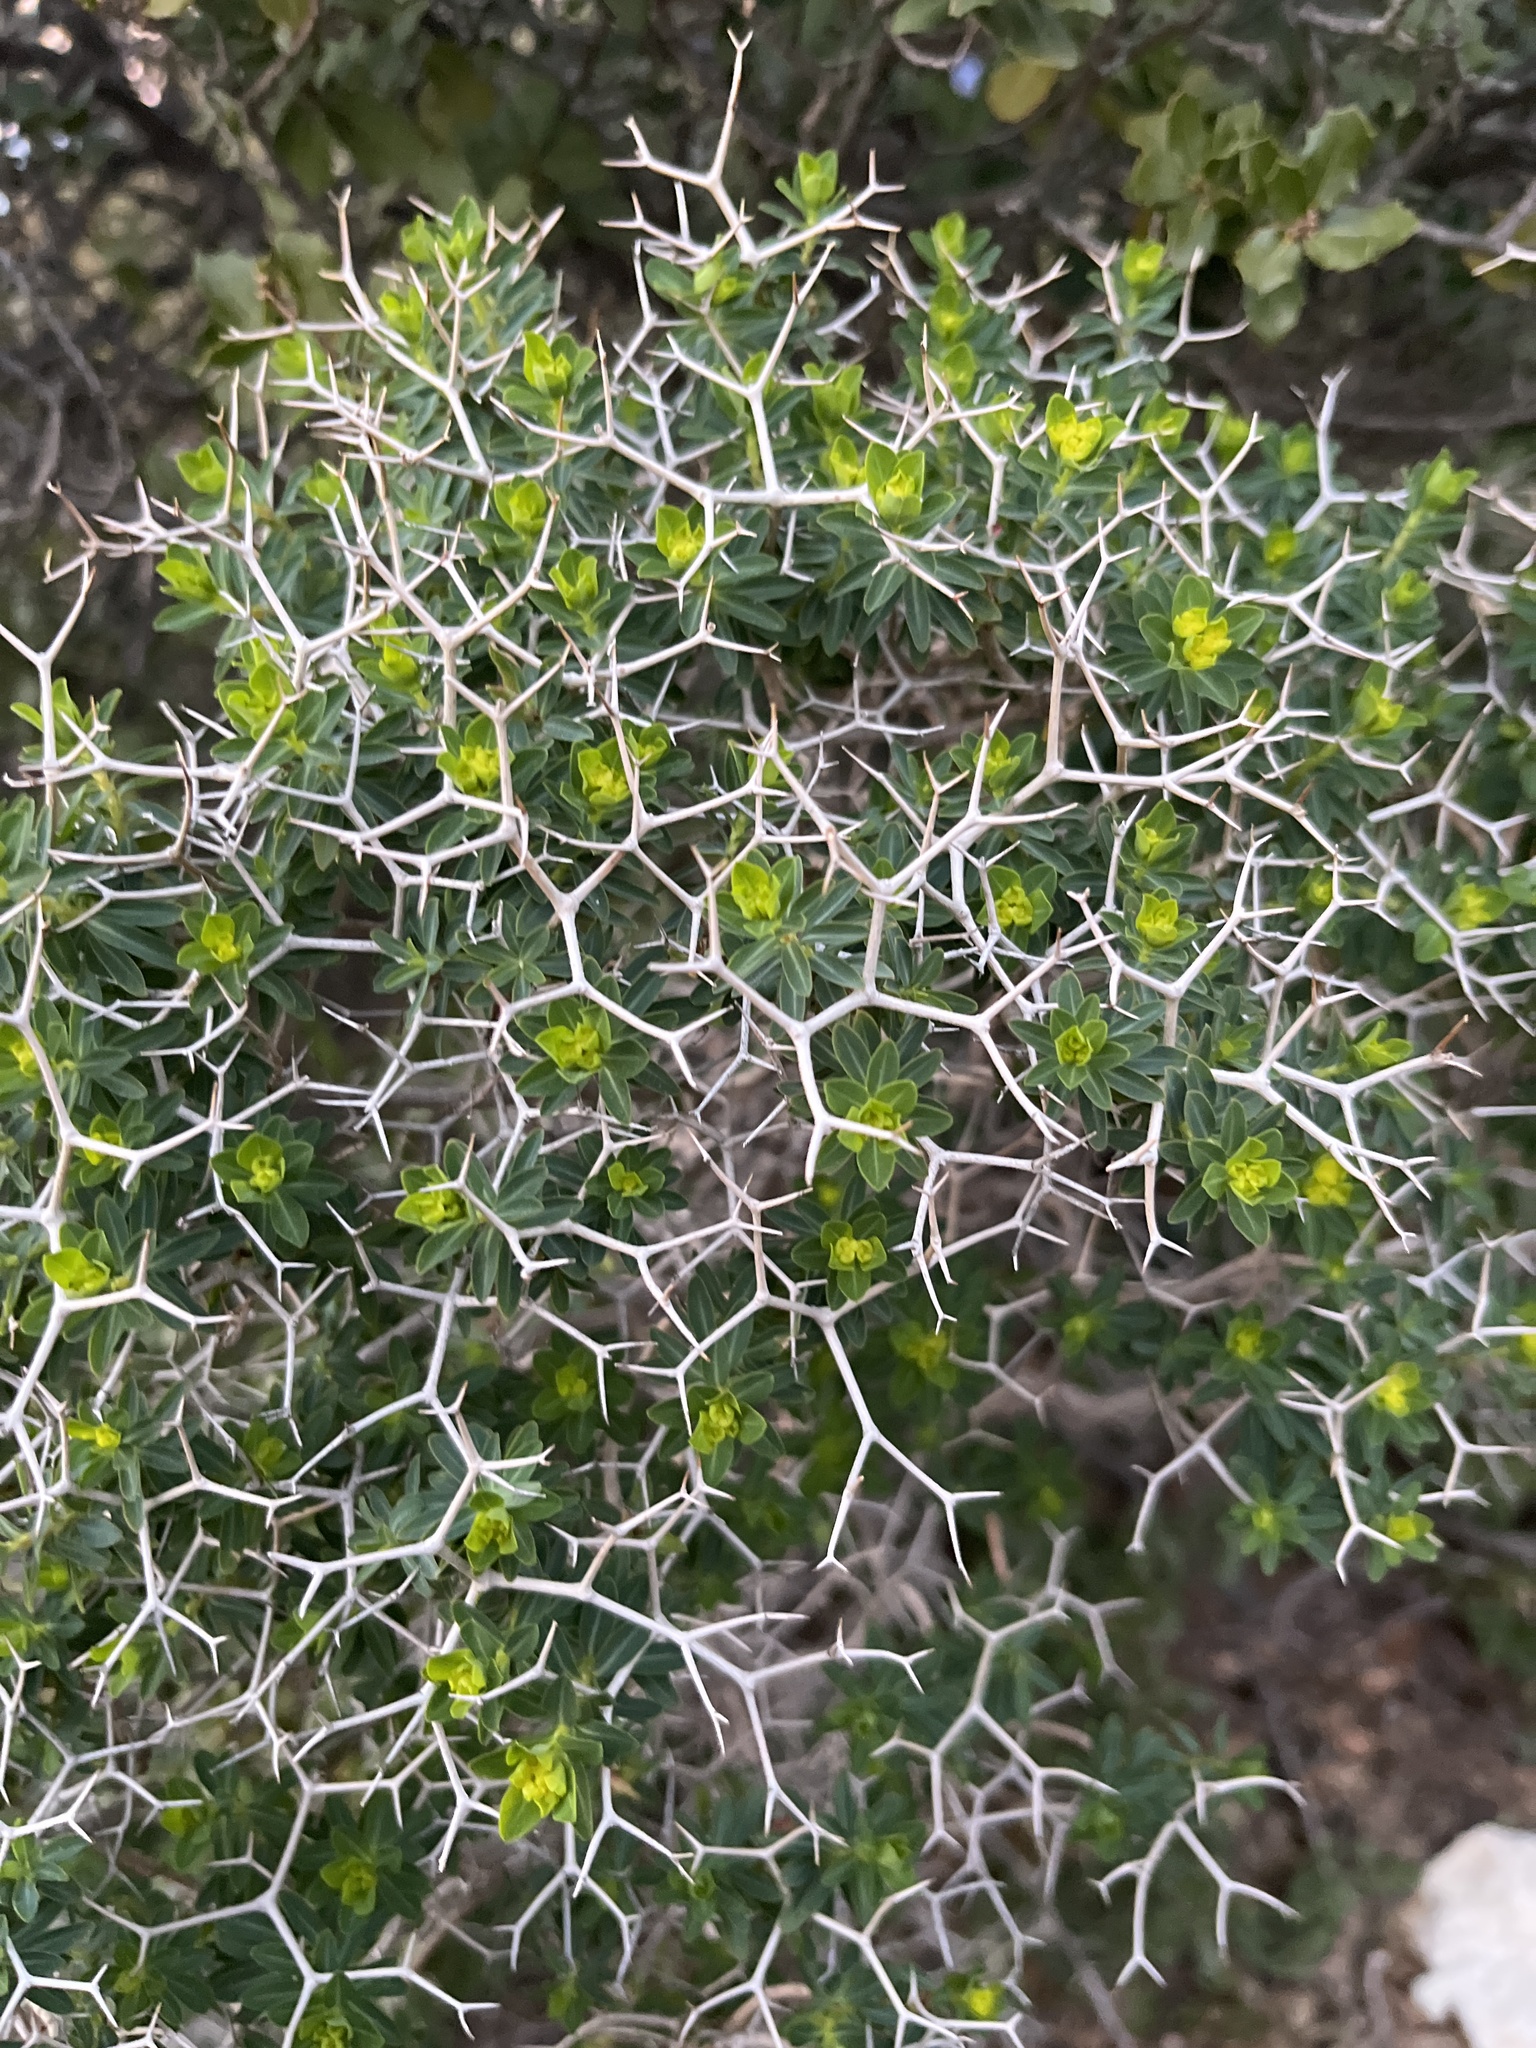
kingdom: Plantae
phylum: Tracheophyta
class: Magnoliopsida
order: Malpighiales
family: Euphorbiaceae
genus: Euphorbia
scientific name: Euphorbia acanthothamnos
